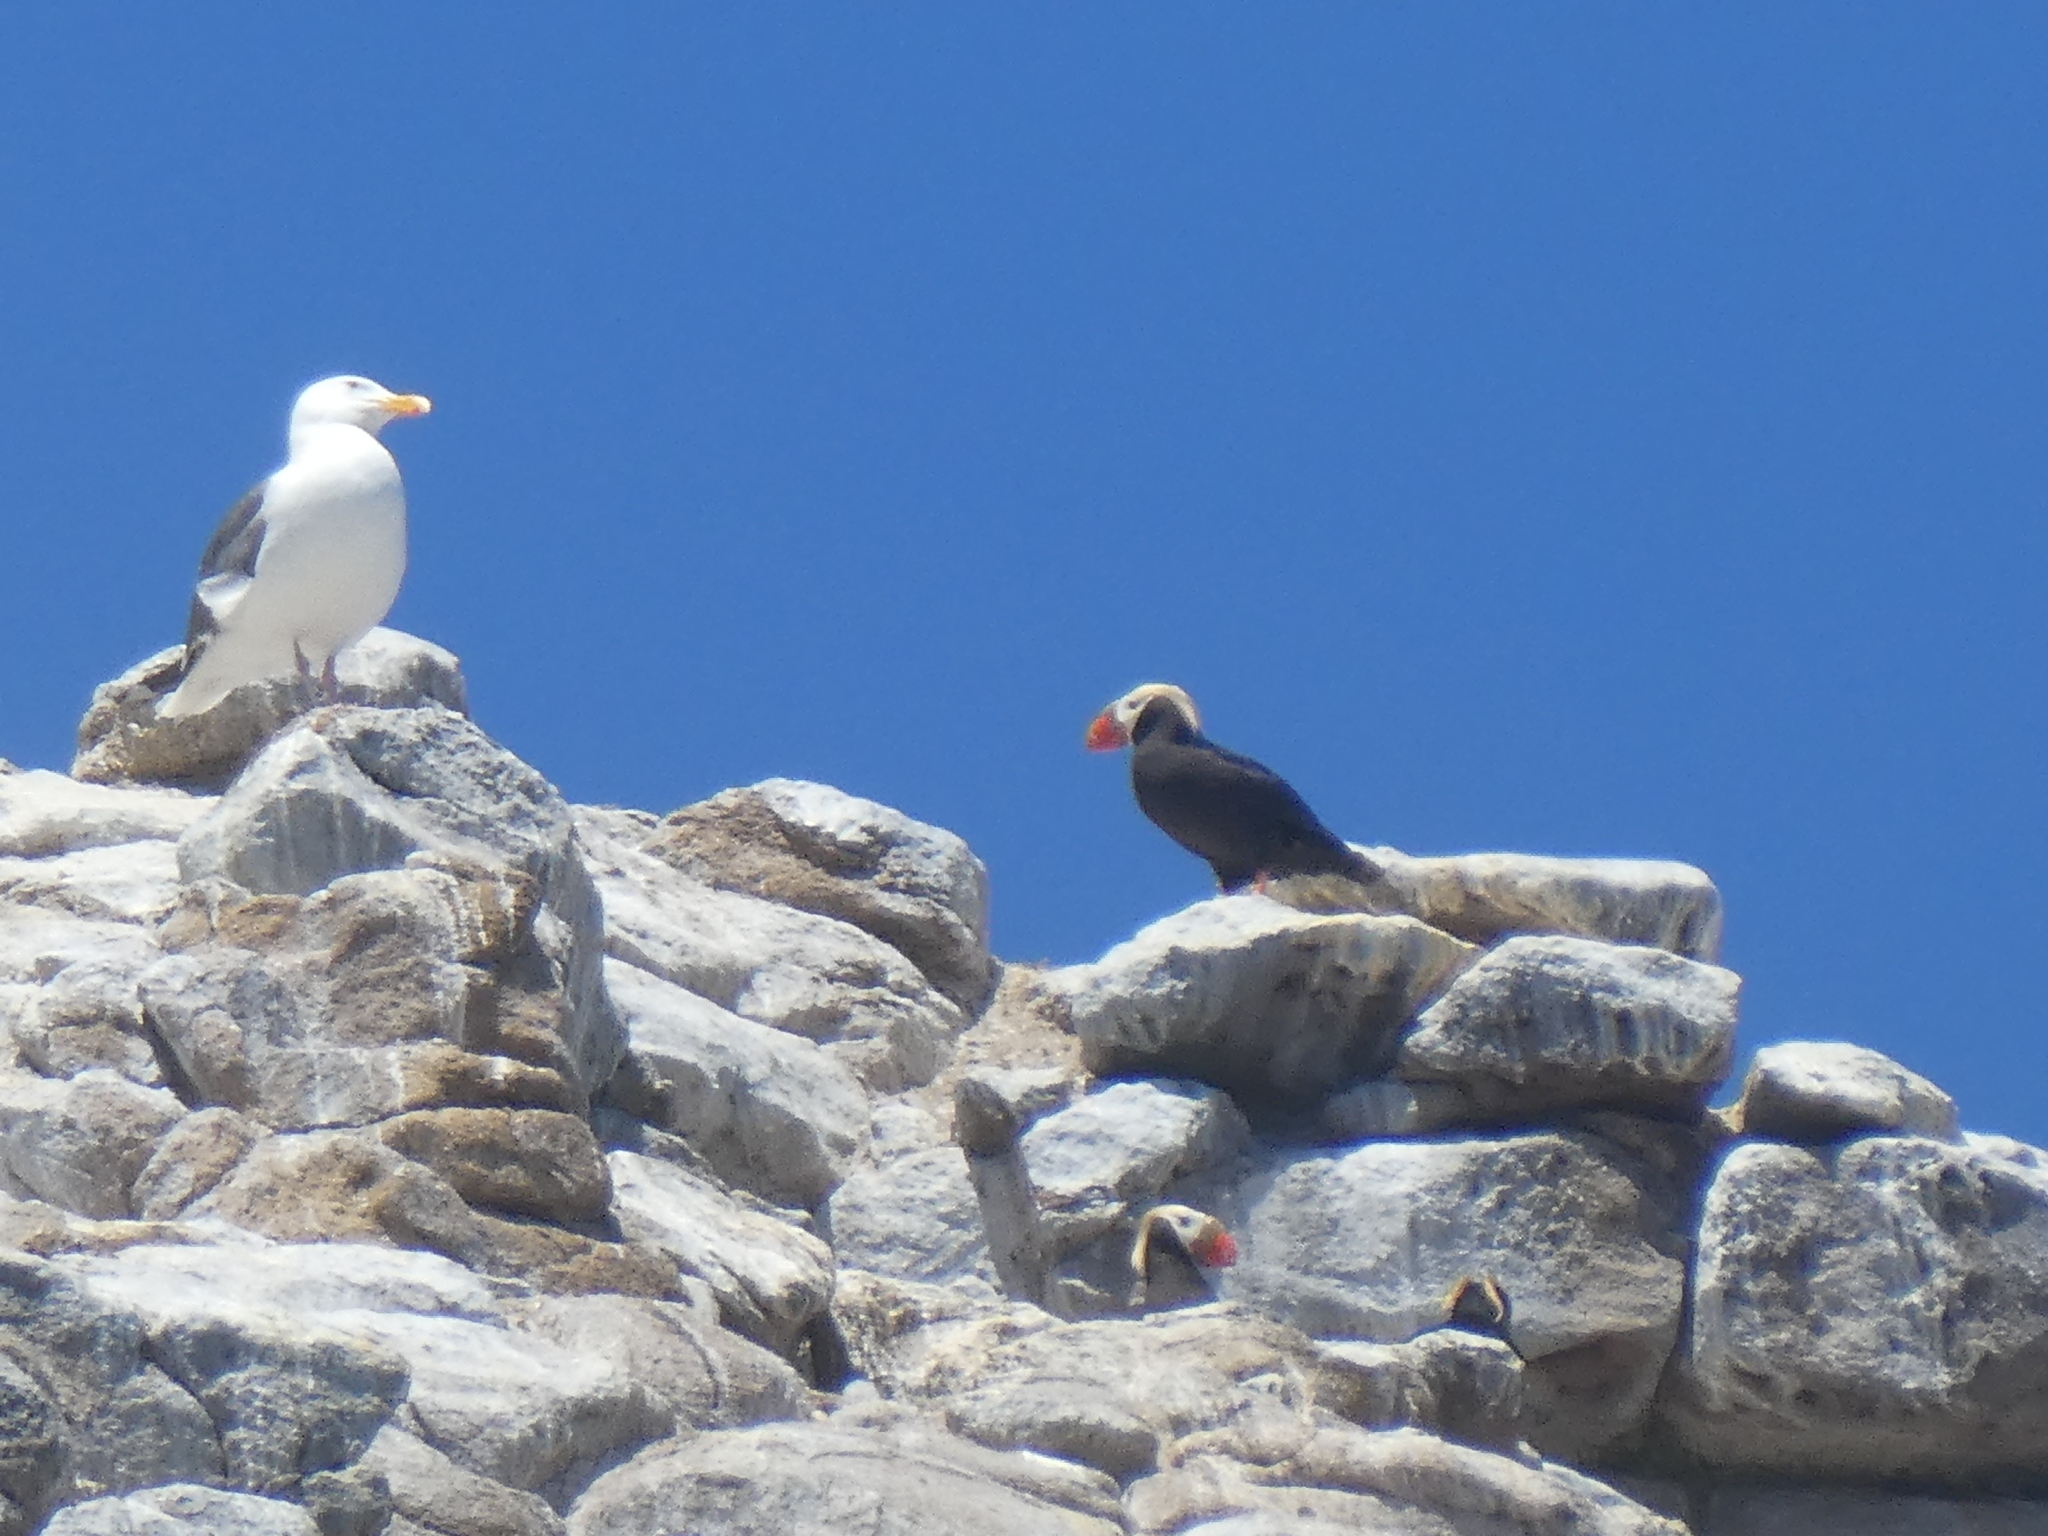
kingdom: Animalia
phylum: Chordata
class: Aves
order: Charadriiformes
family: Alcidae
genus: Fratercula
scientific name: Fratercula cirrhata
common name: Tufted puffin
